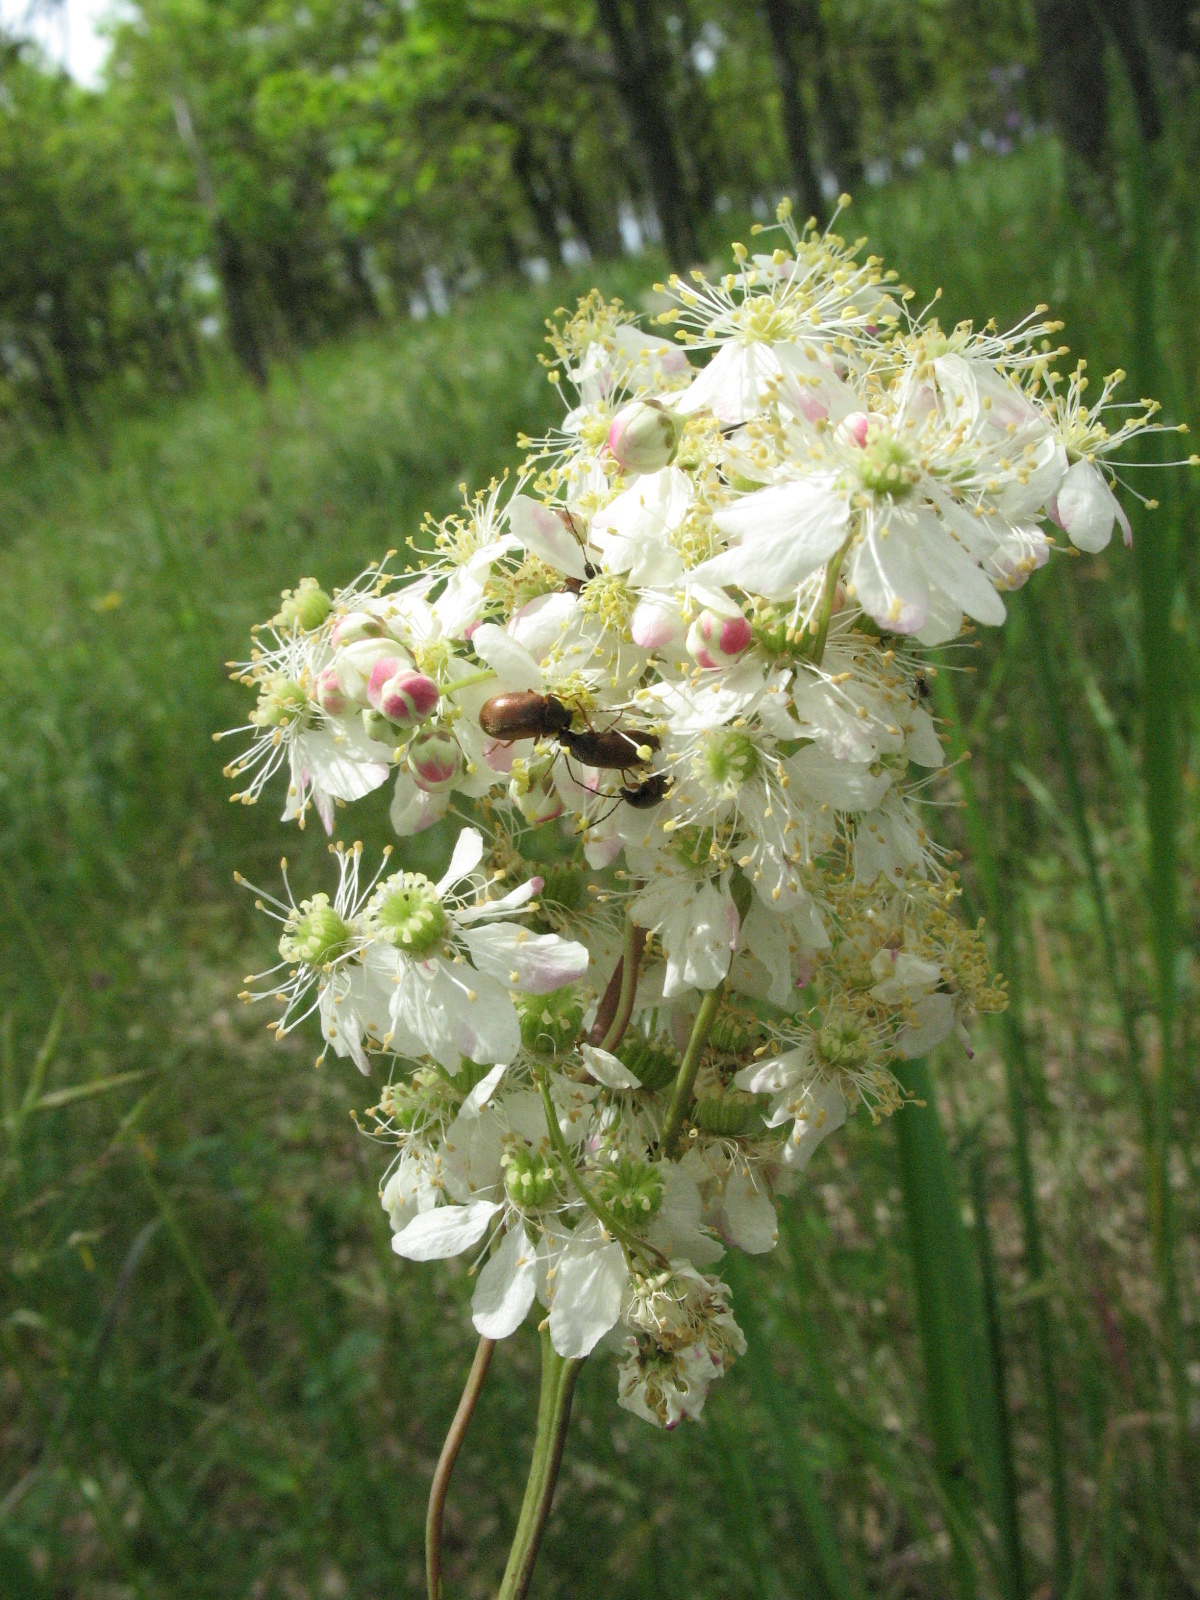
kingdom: Plantae
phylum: Tracheophyta
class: Magnoliopsida
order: Rosales
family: Rosaceae
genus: Filipendula
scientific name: Filipendula vulgaris
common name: Dropwort
